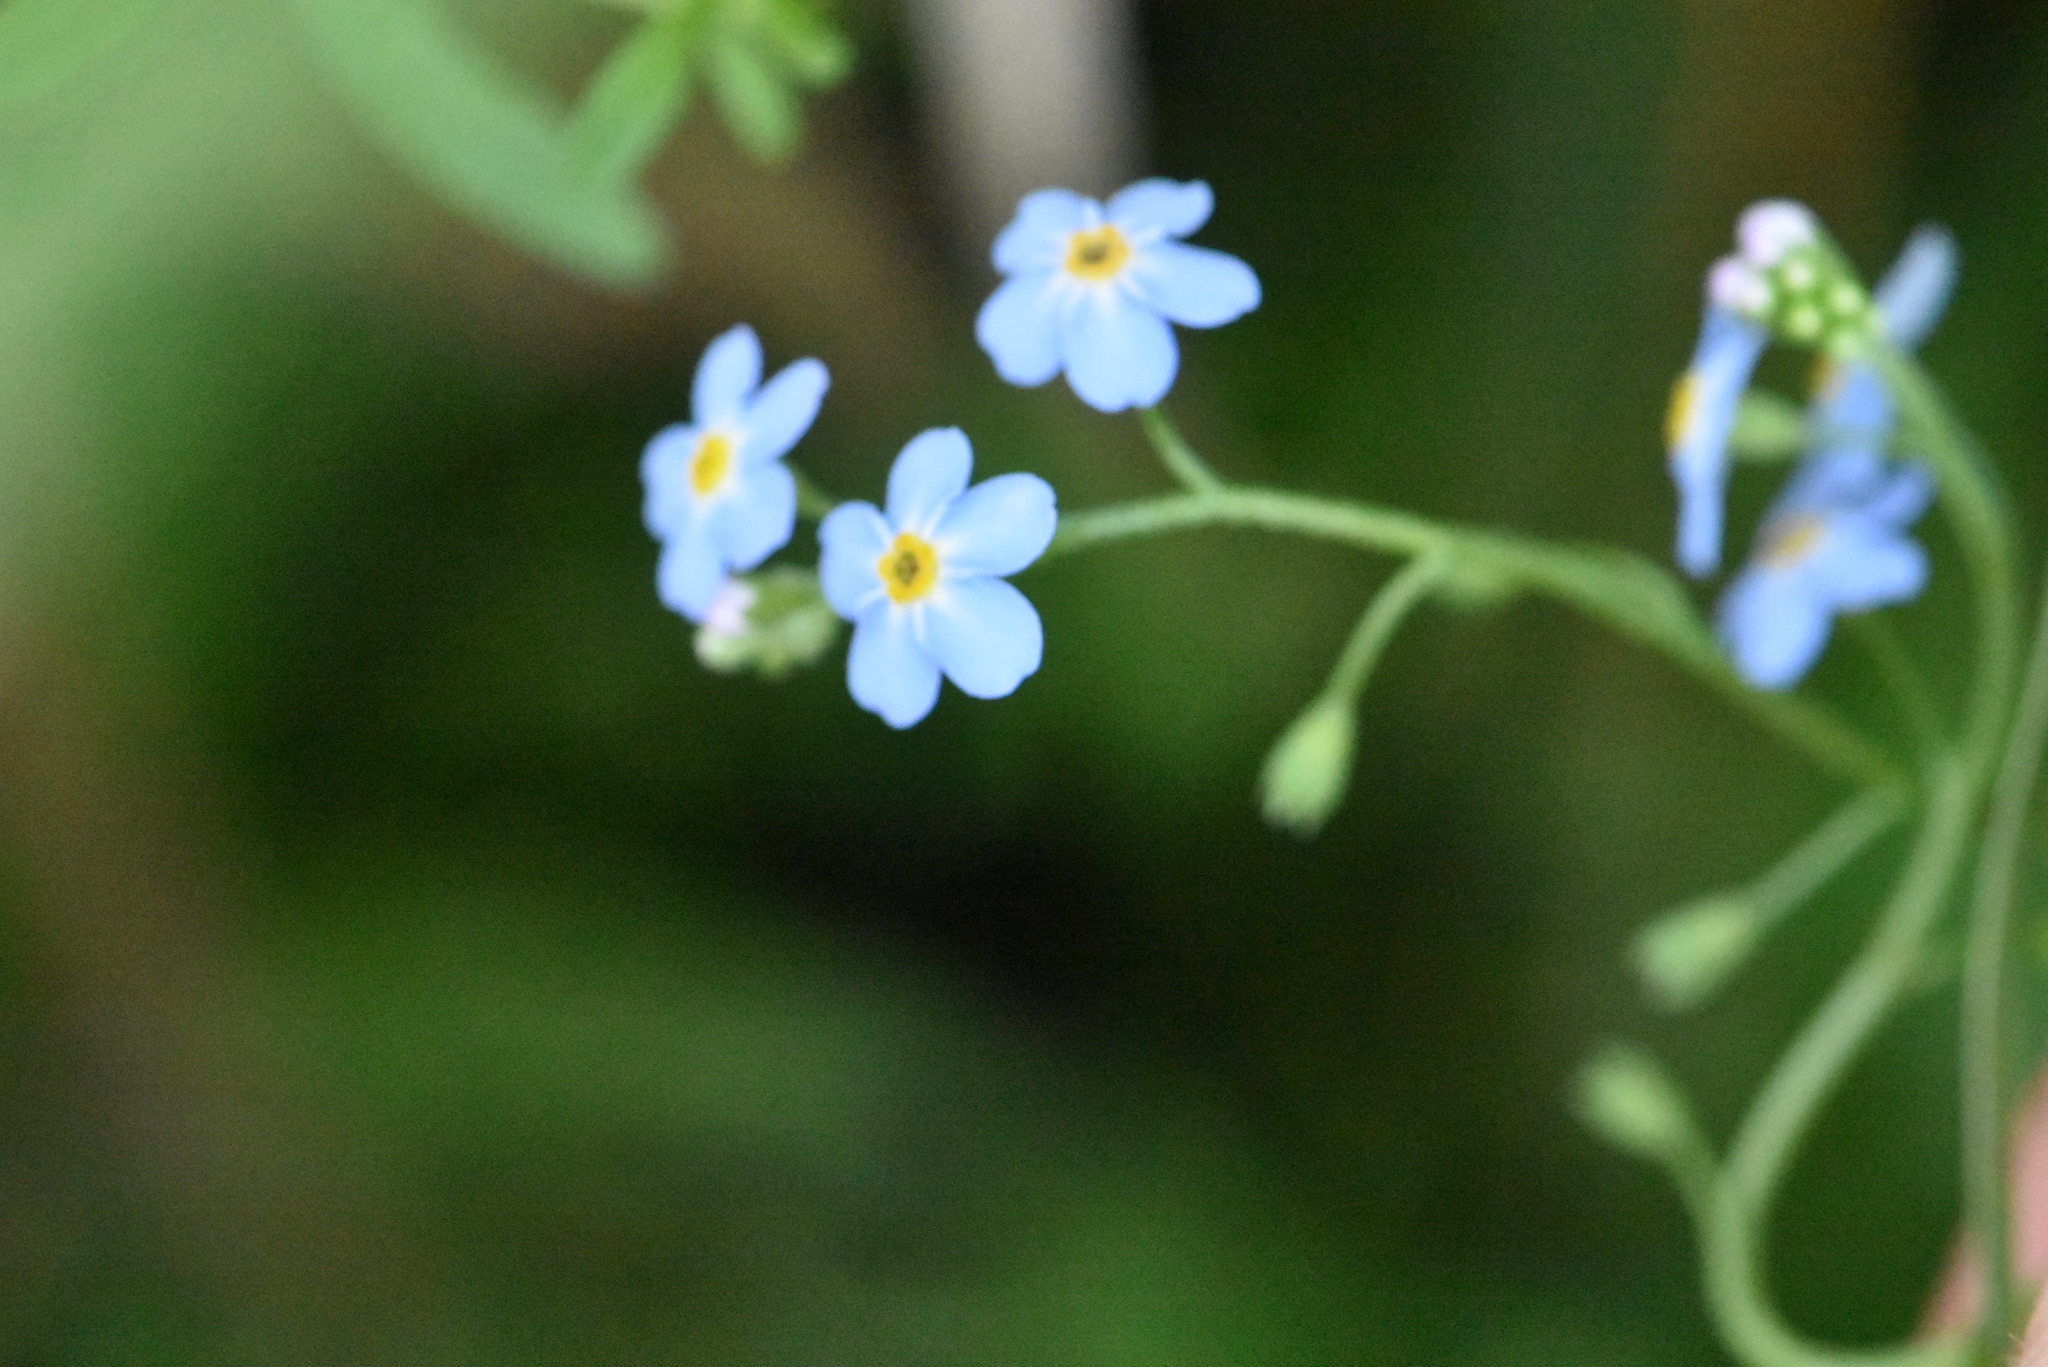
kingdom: Plantae
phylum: Tracheophyta
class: Magnoliopsida
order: Boraginales
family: Boraginaceae
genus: Myosotis
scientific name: Myosotis scorpioides
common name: Water forget-me-not
